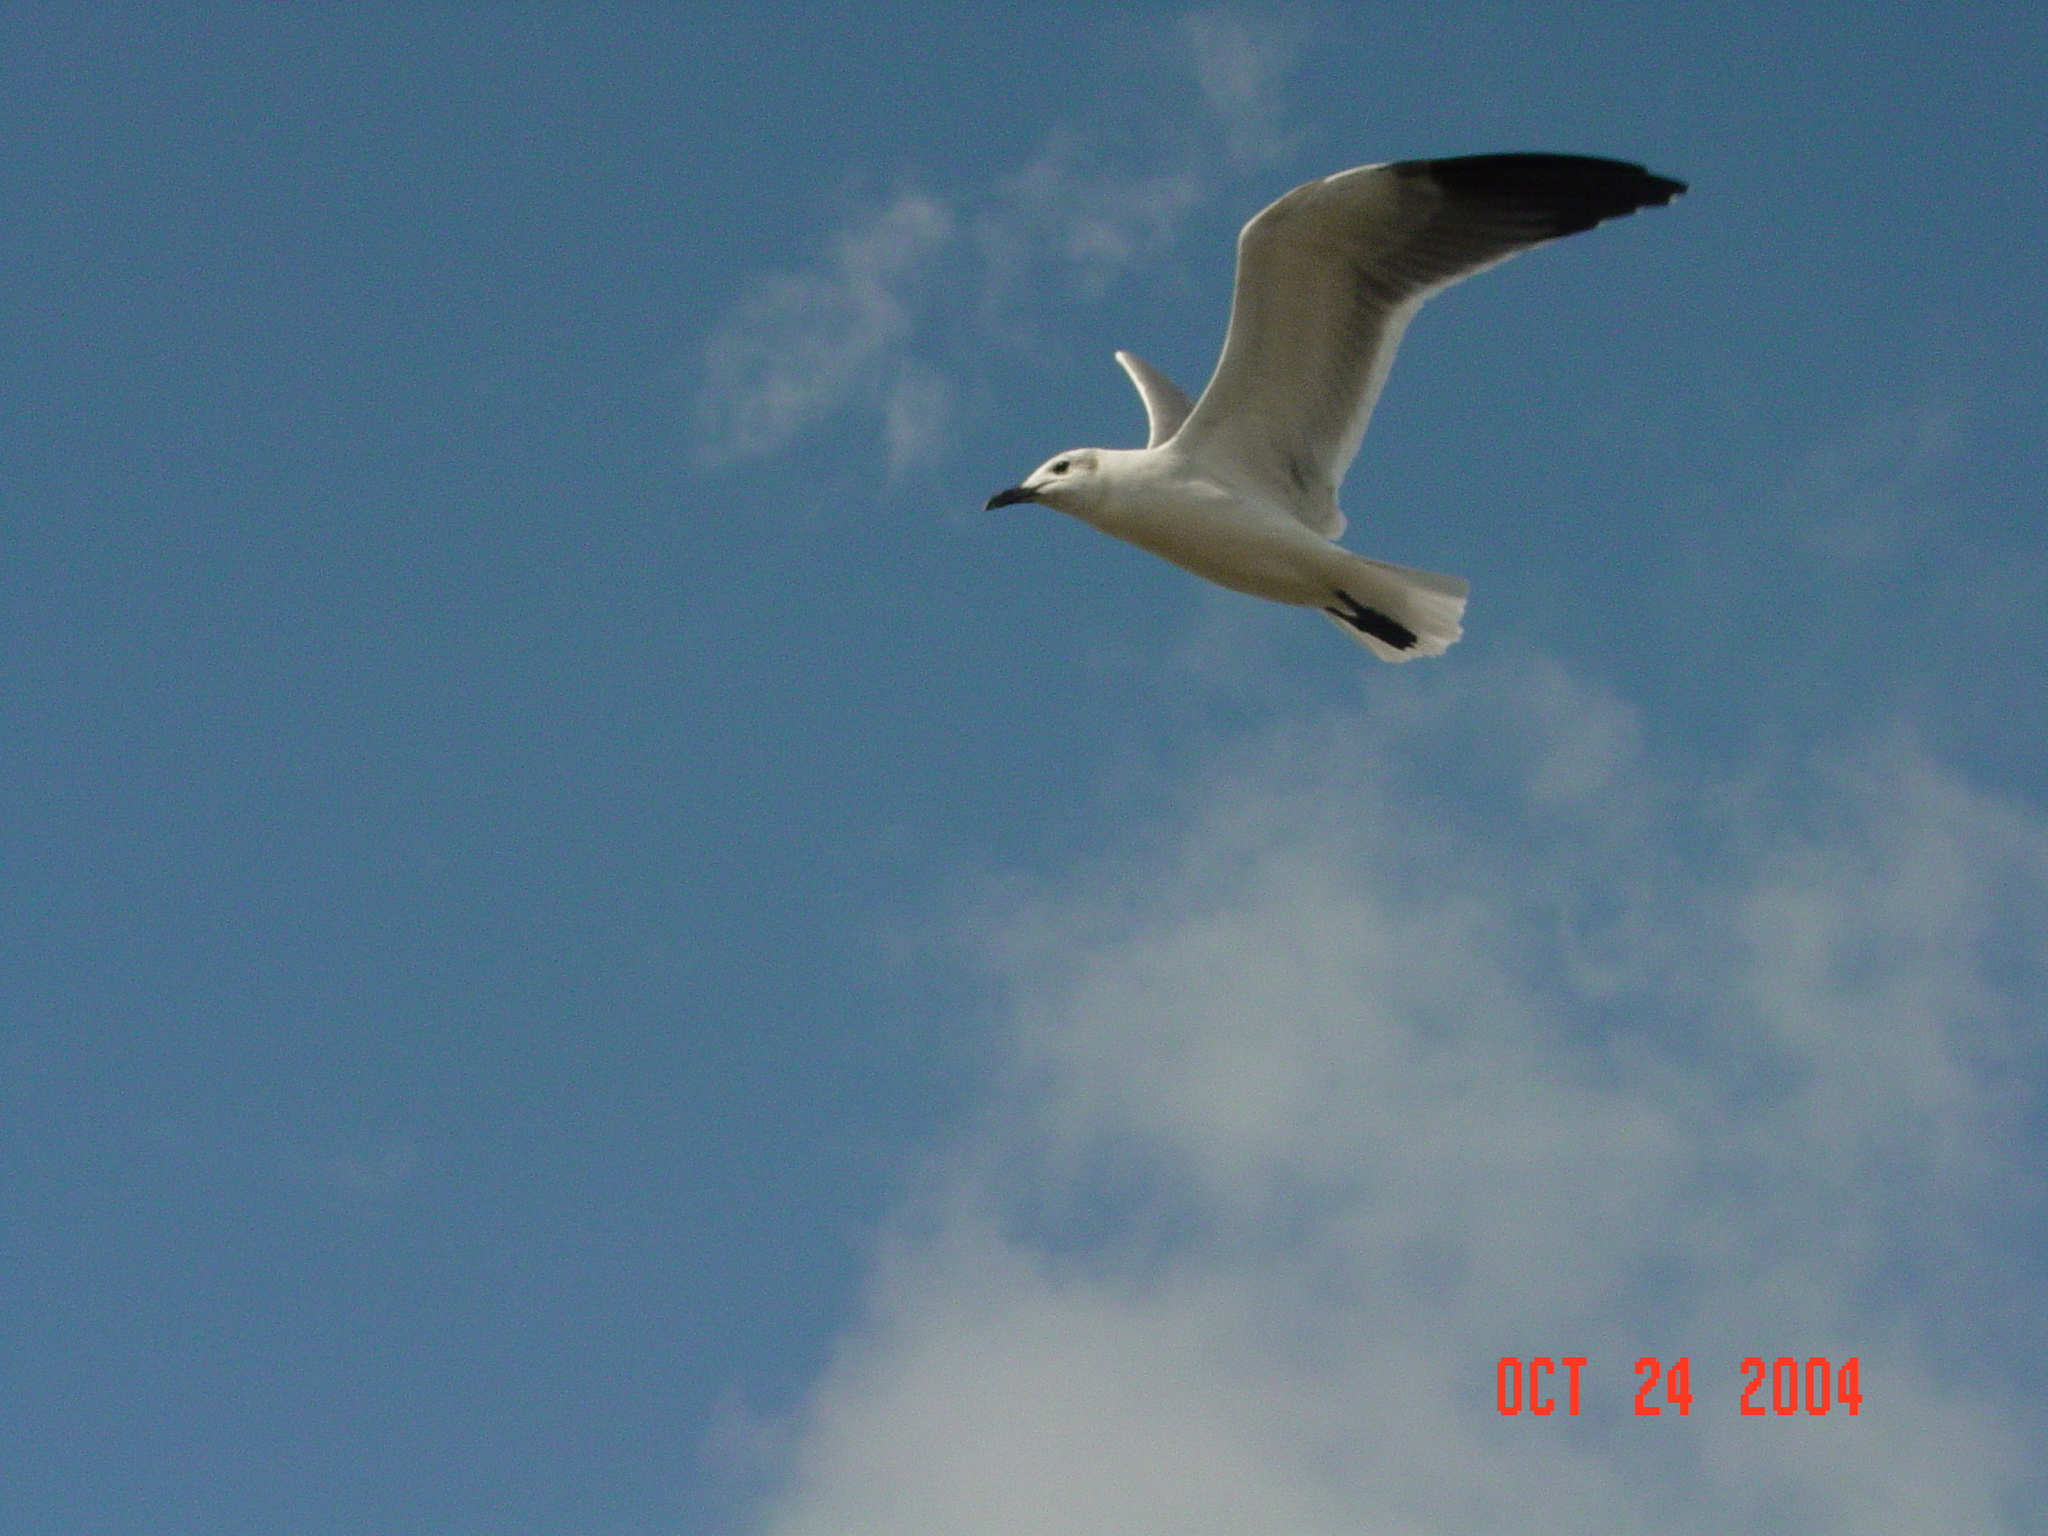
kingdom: Animalia
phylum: Chordata
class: Aves
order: Charadriiformes
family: Laridae
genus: Leucophaeus
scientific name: Leucophaeus atricilla
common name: Laughing gull
